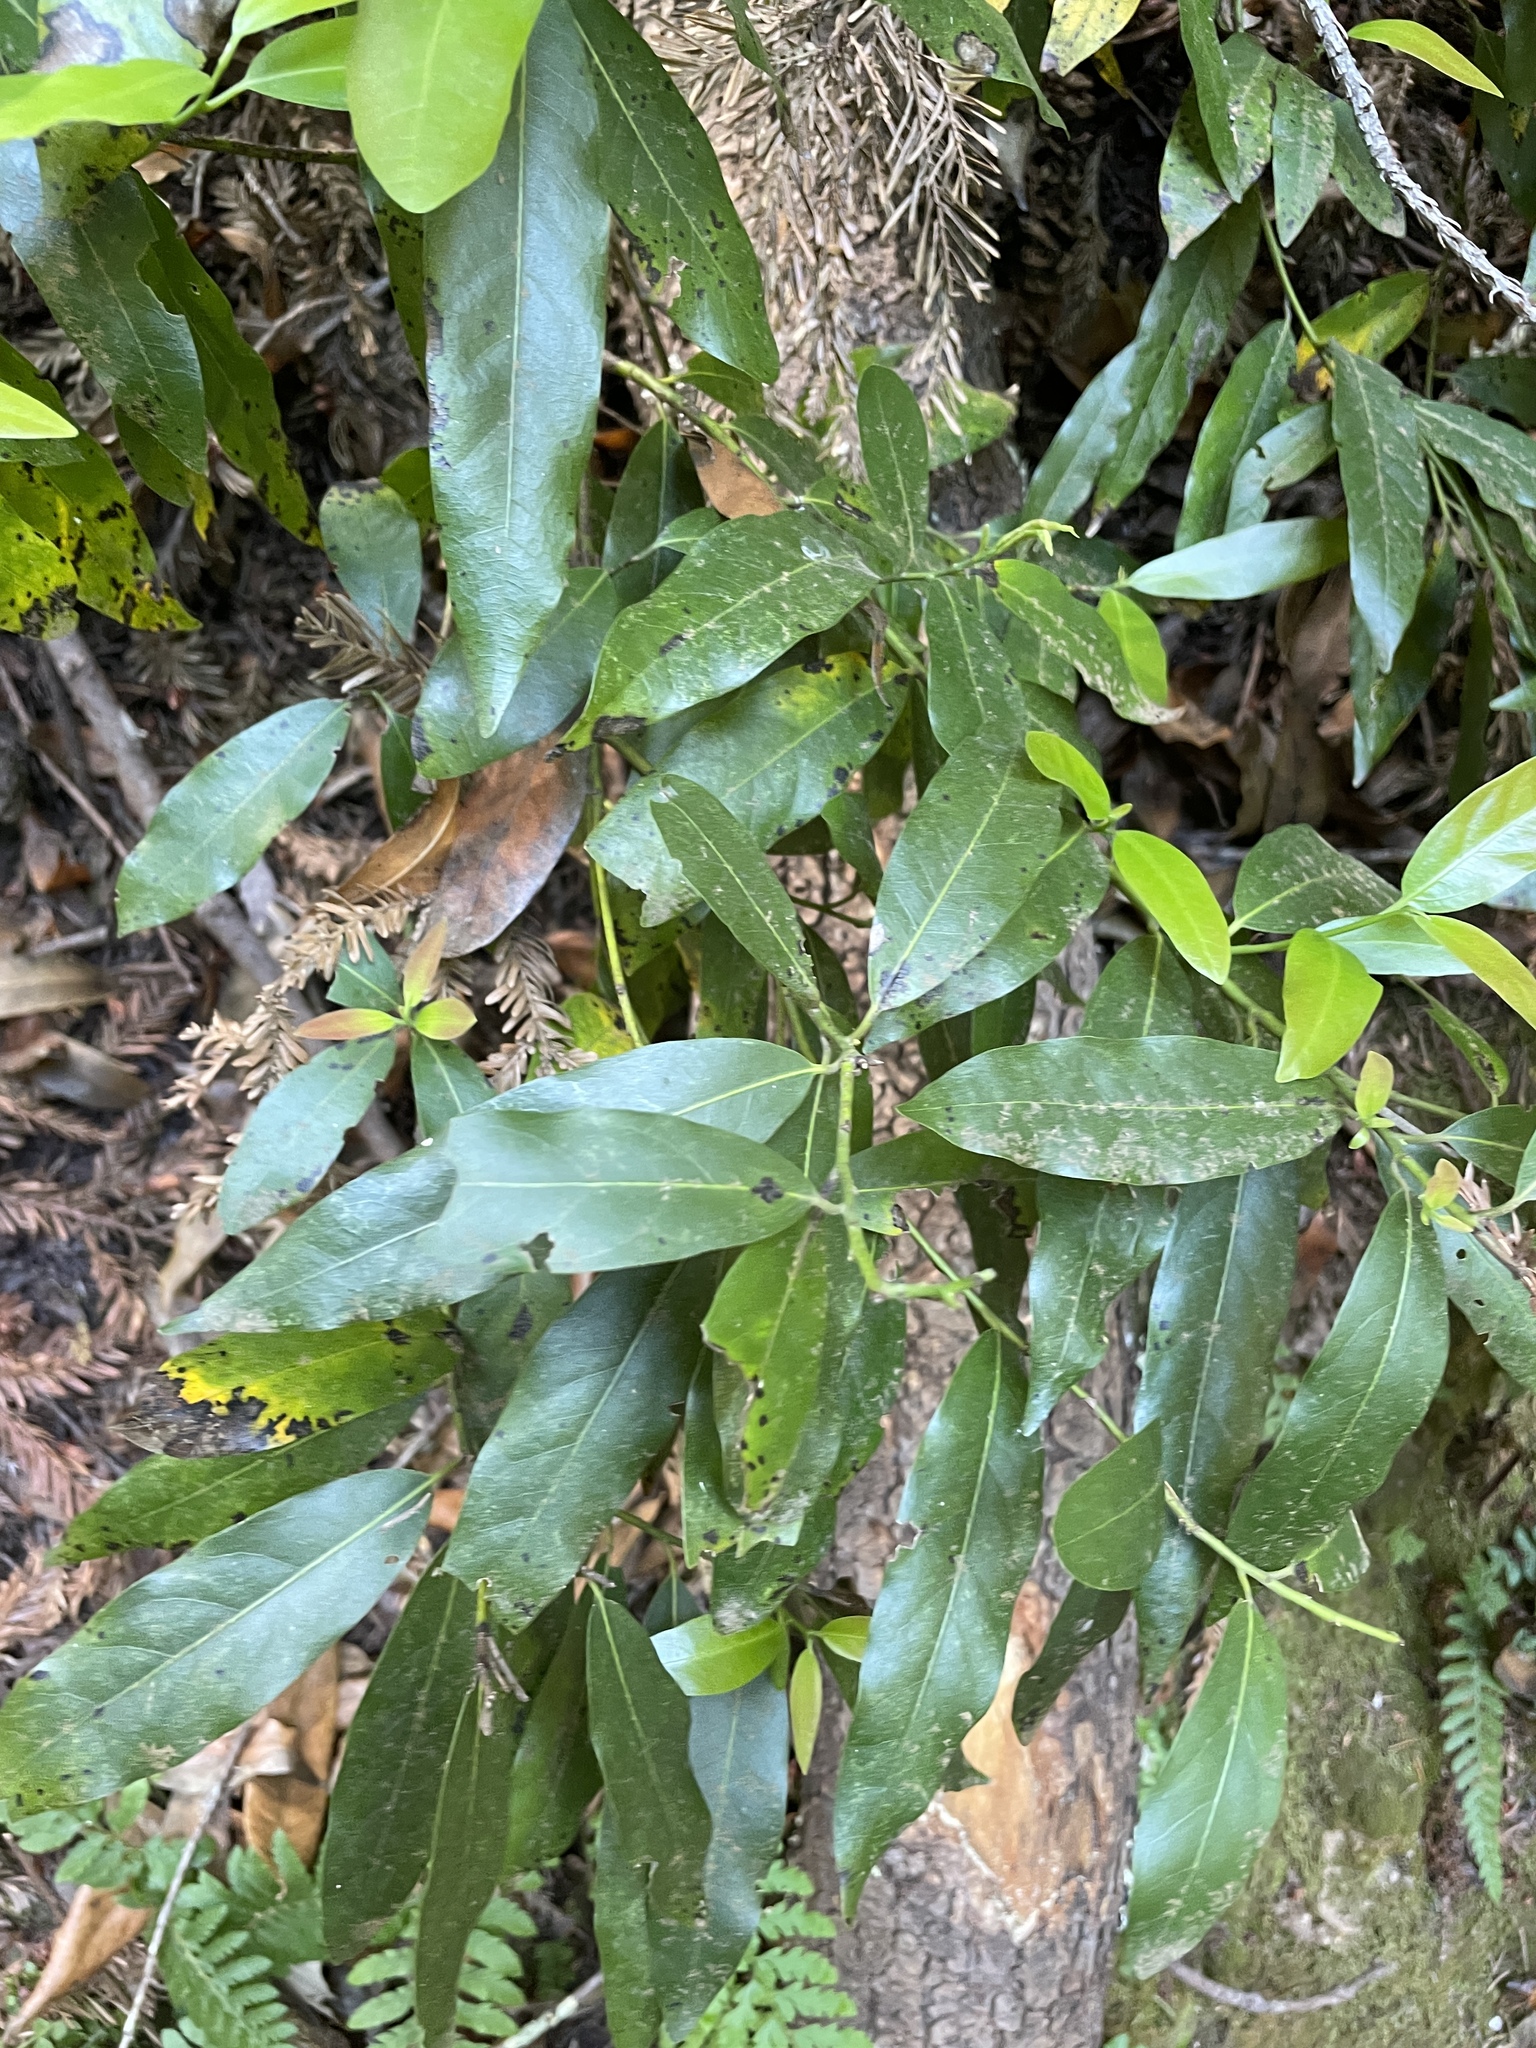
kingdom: Plantae
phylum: Tracheophyta
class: Magnoliopsida
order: Laurales
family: Lauraceae
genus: Umbellularia
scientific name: Umbellularia californica
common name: California bay
